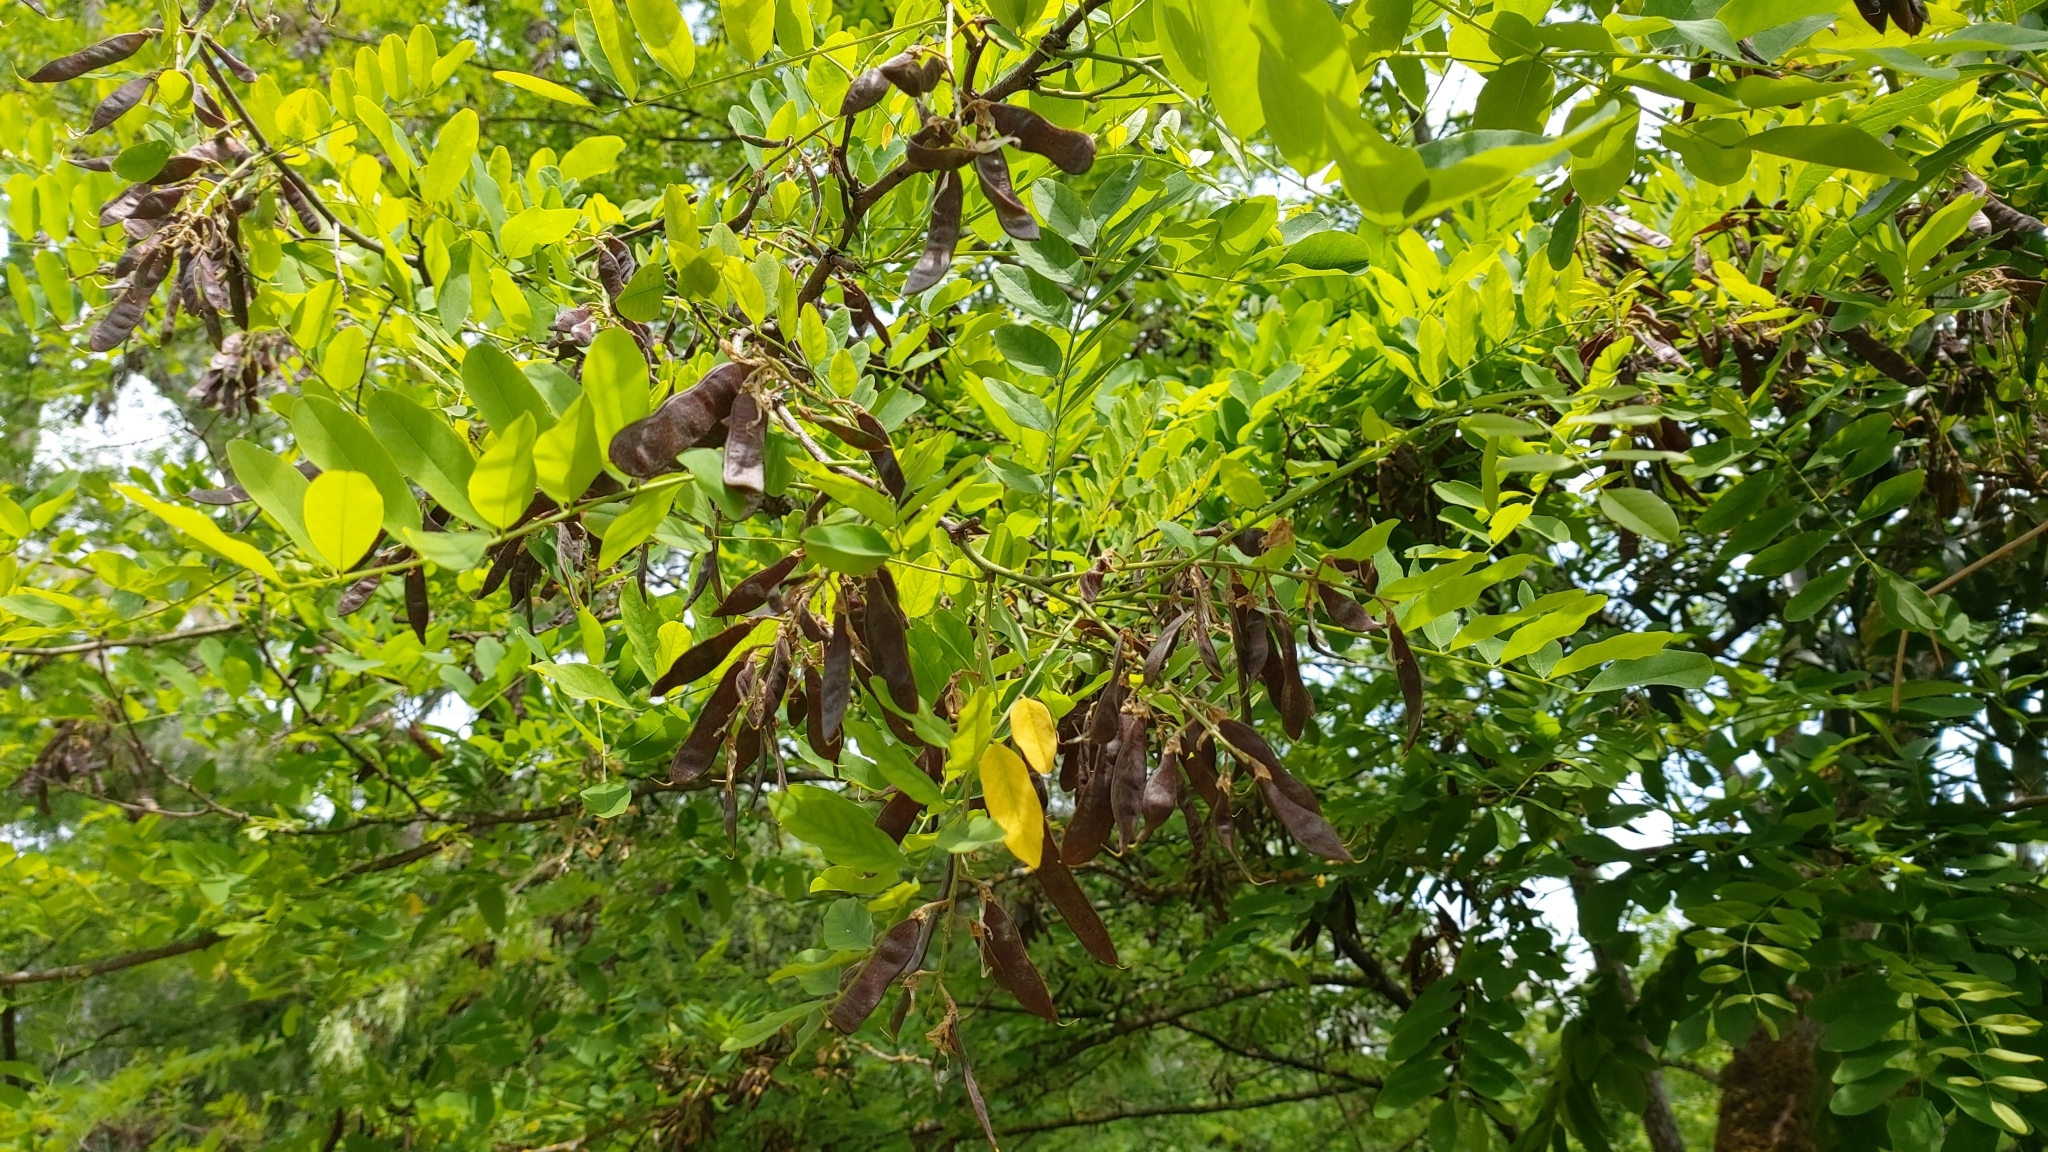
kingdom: Plantae
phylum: Tracheophyta
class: Magnoliopsida
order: Fabales
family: Fabaceae
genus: Robinia
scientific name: Robinia pseudoacacia
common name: Black locust
